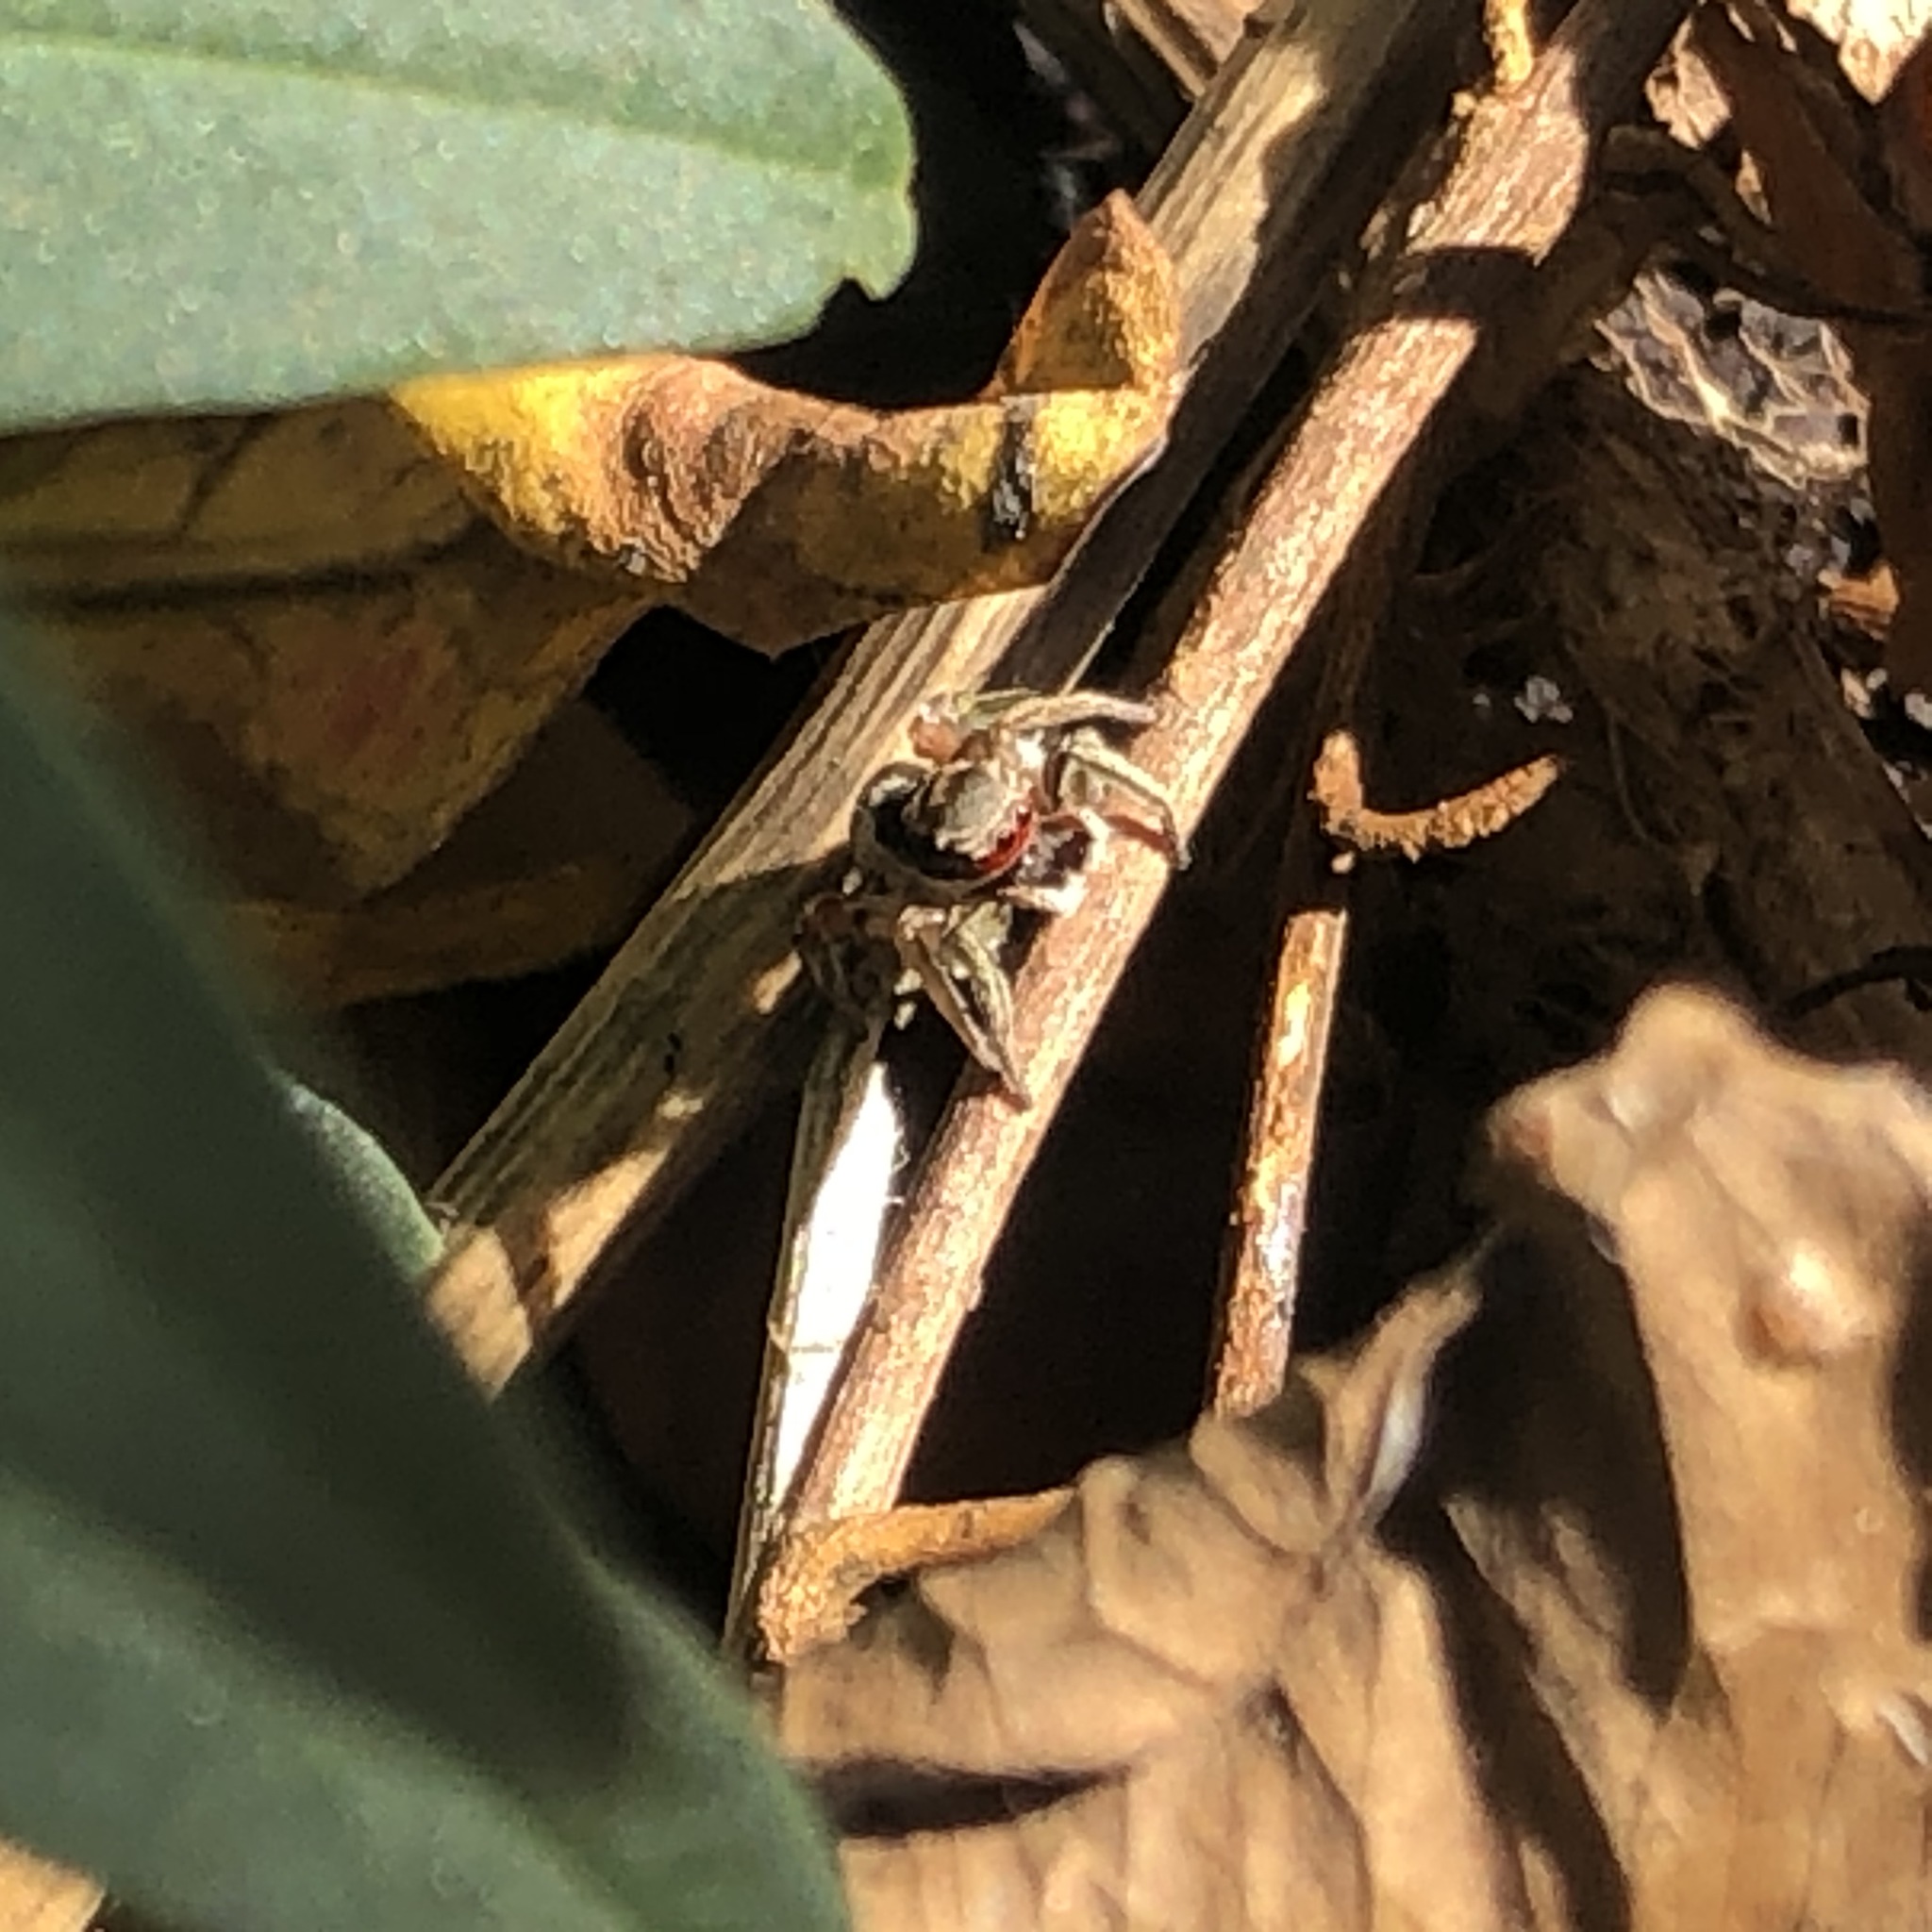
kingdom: Animalia
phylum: Arthropoda
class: Arachnida
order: Araneae
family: Salticidae
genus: Habronattus
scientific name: Habronattus pyrrithrix
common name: Jumping spider
